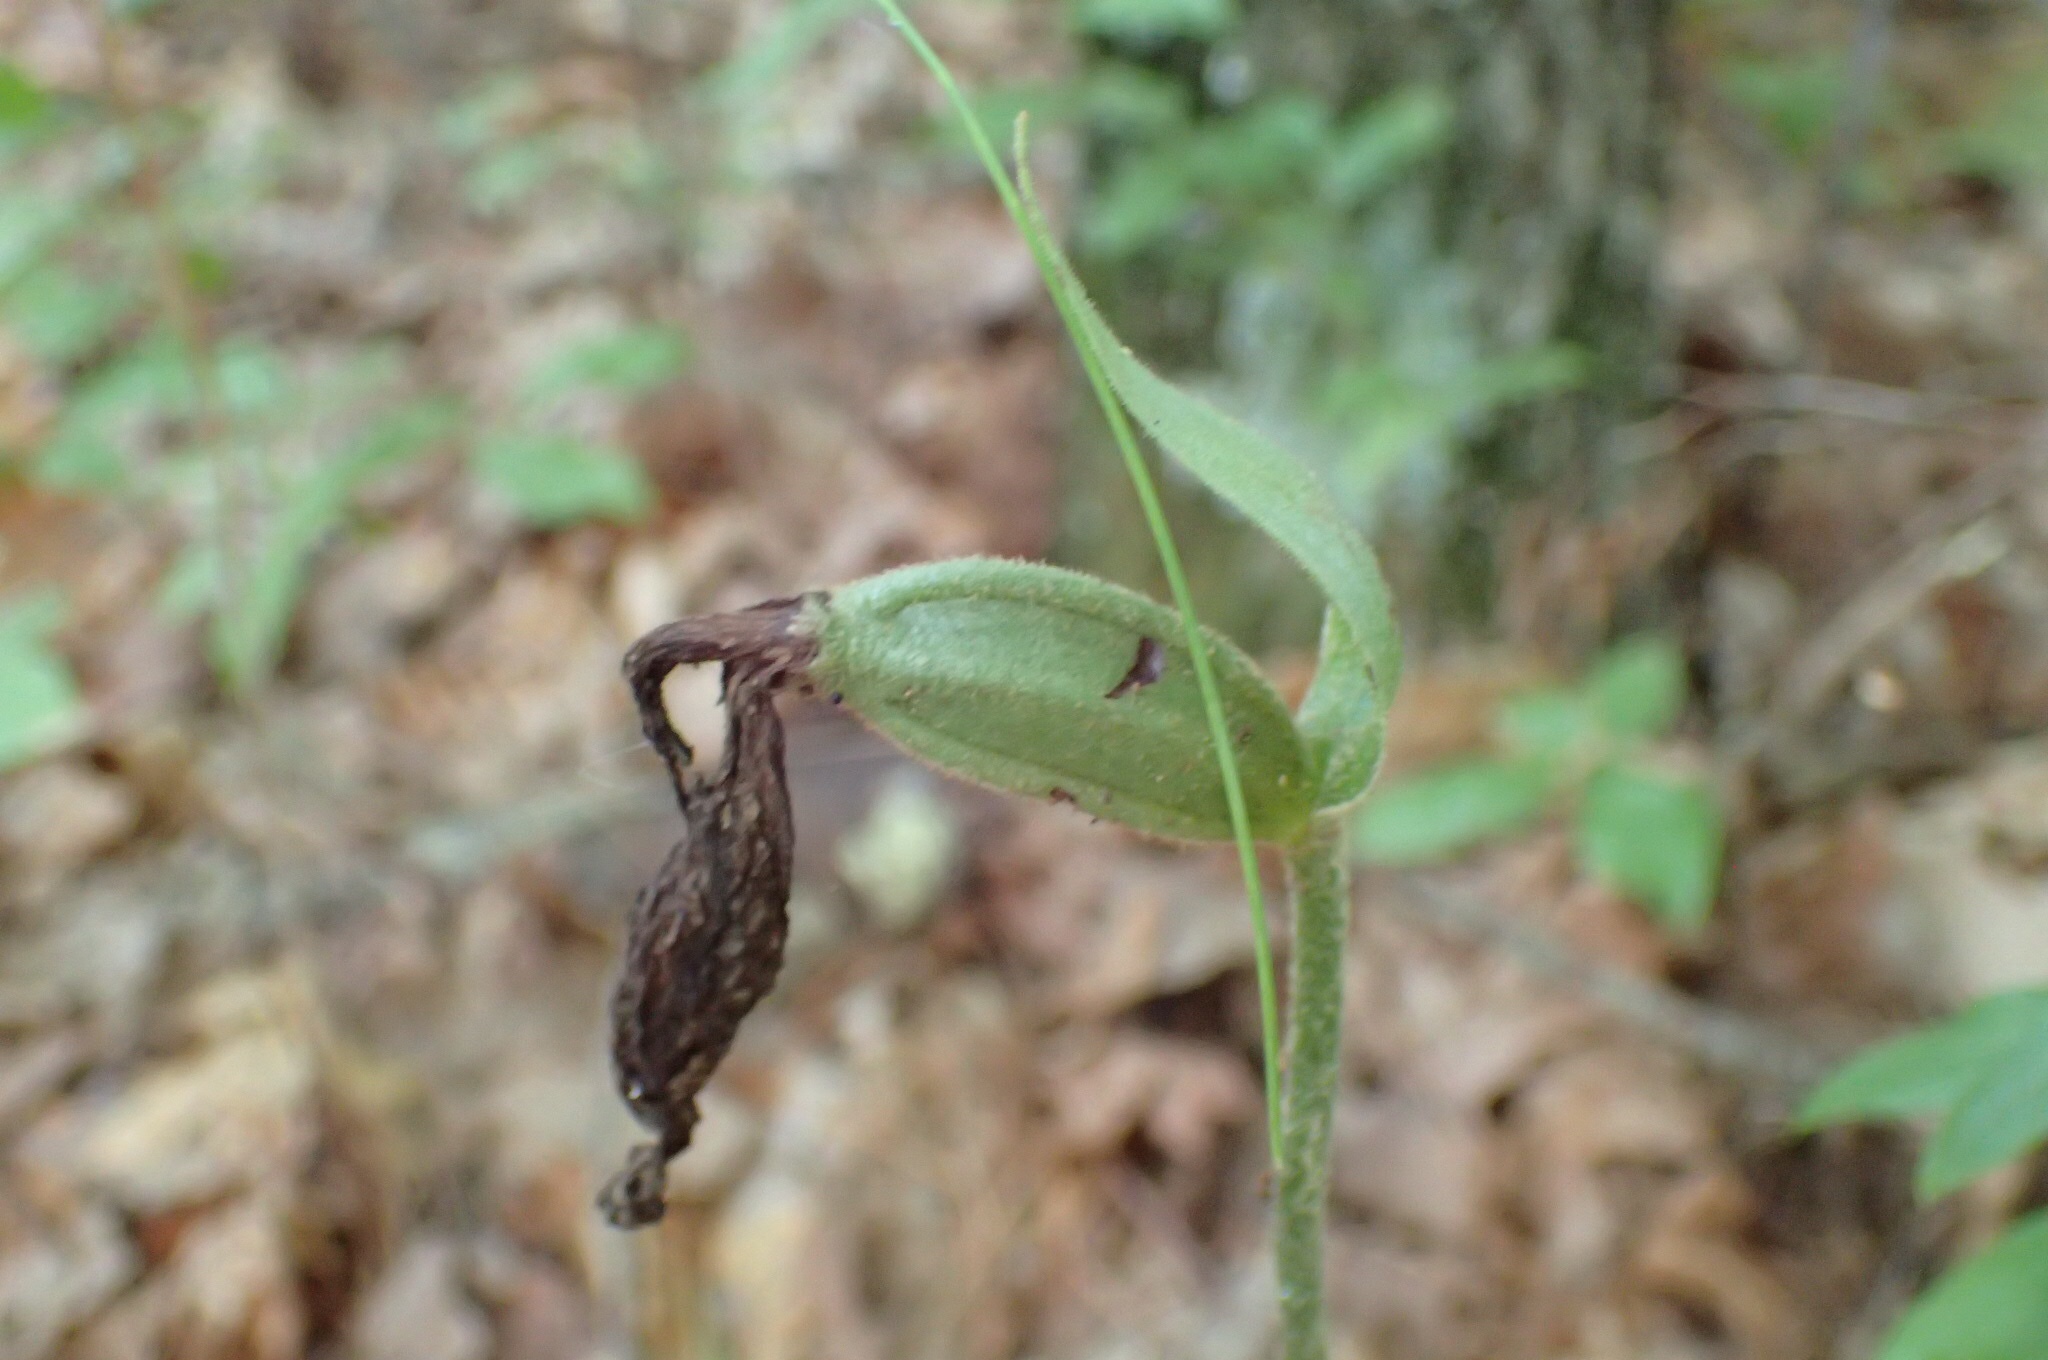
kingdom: Plantae
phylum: Tracheophyta
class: Liliopsida
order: Asparagales
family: Orchidaceae
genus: Cypripedium
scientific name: Cypripedium acaule
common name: Pink lady's-slipper
